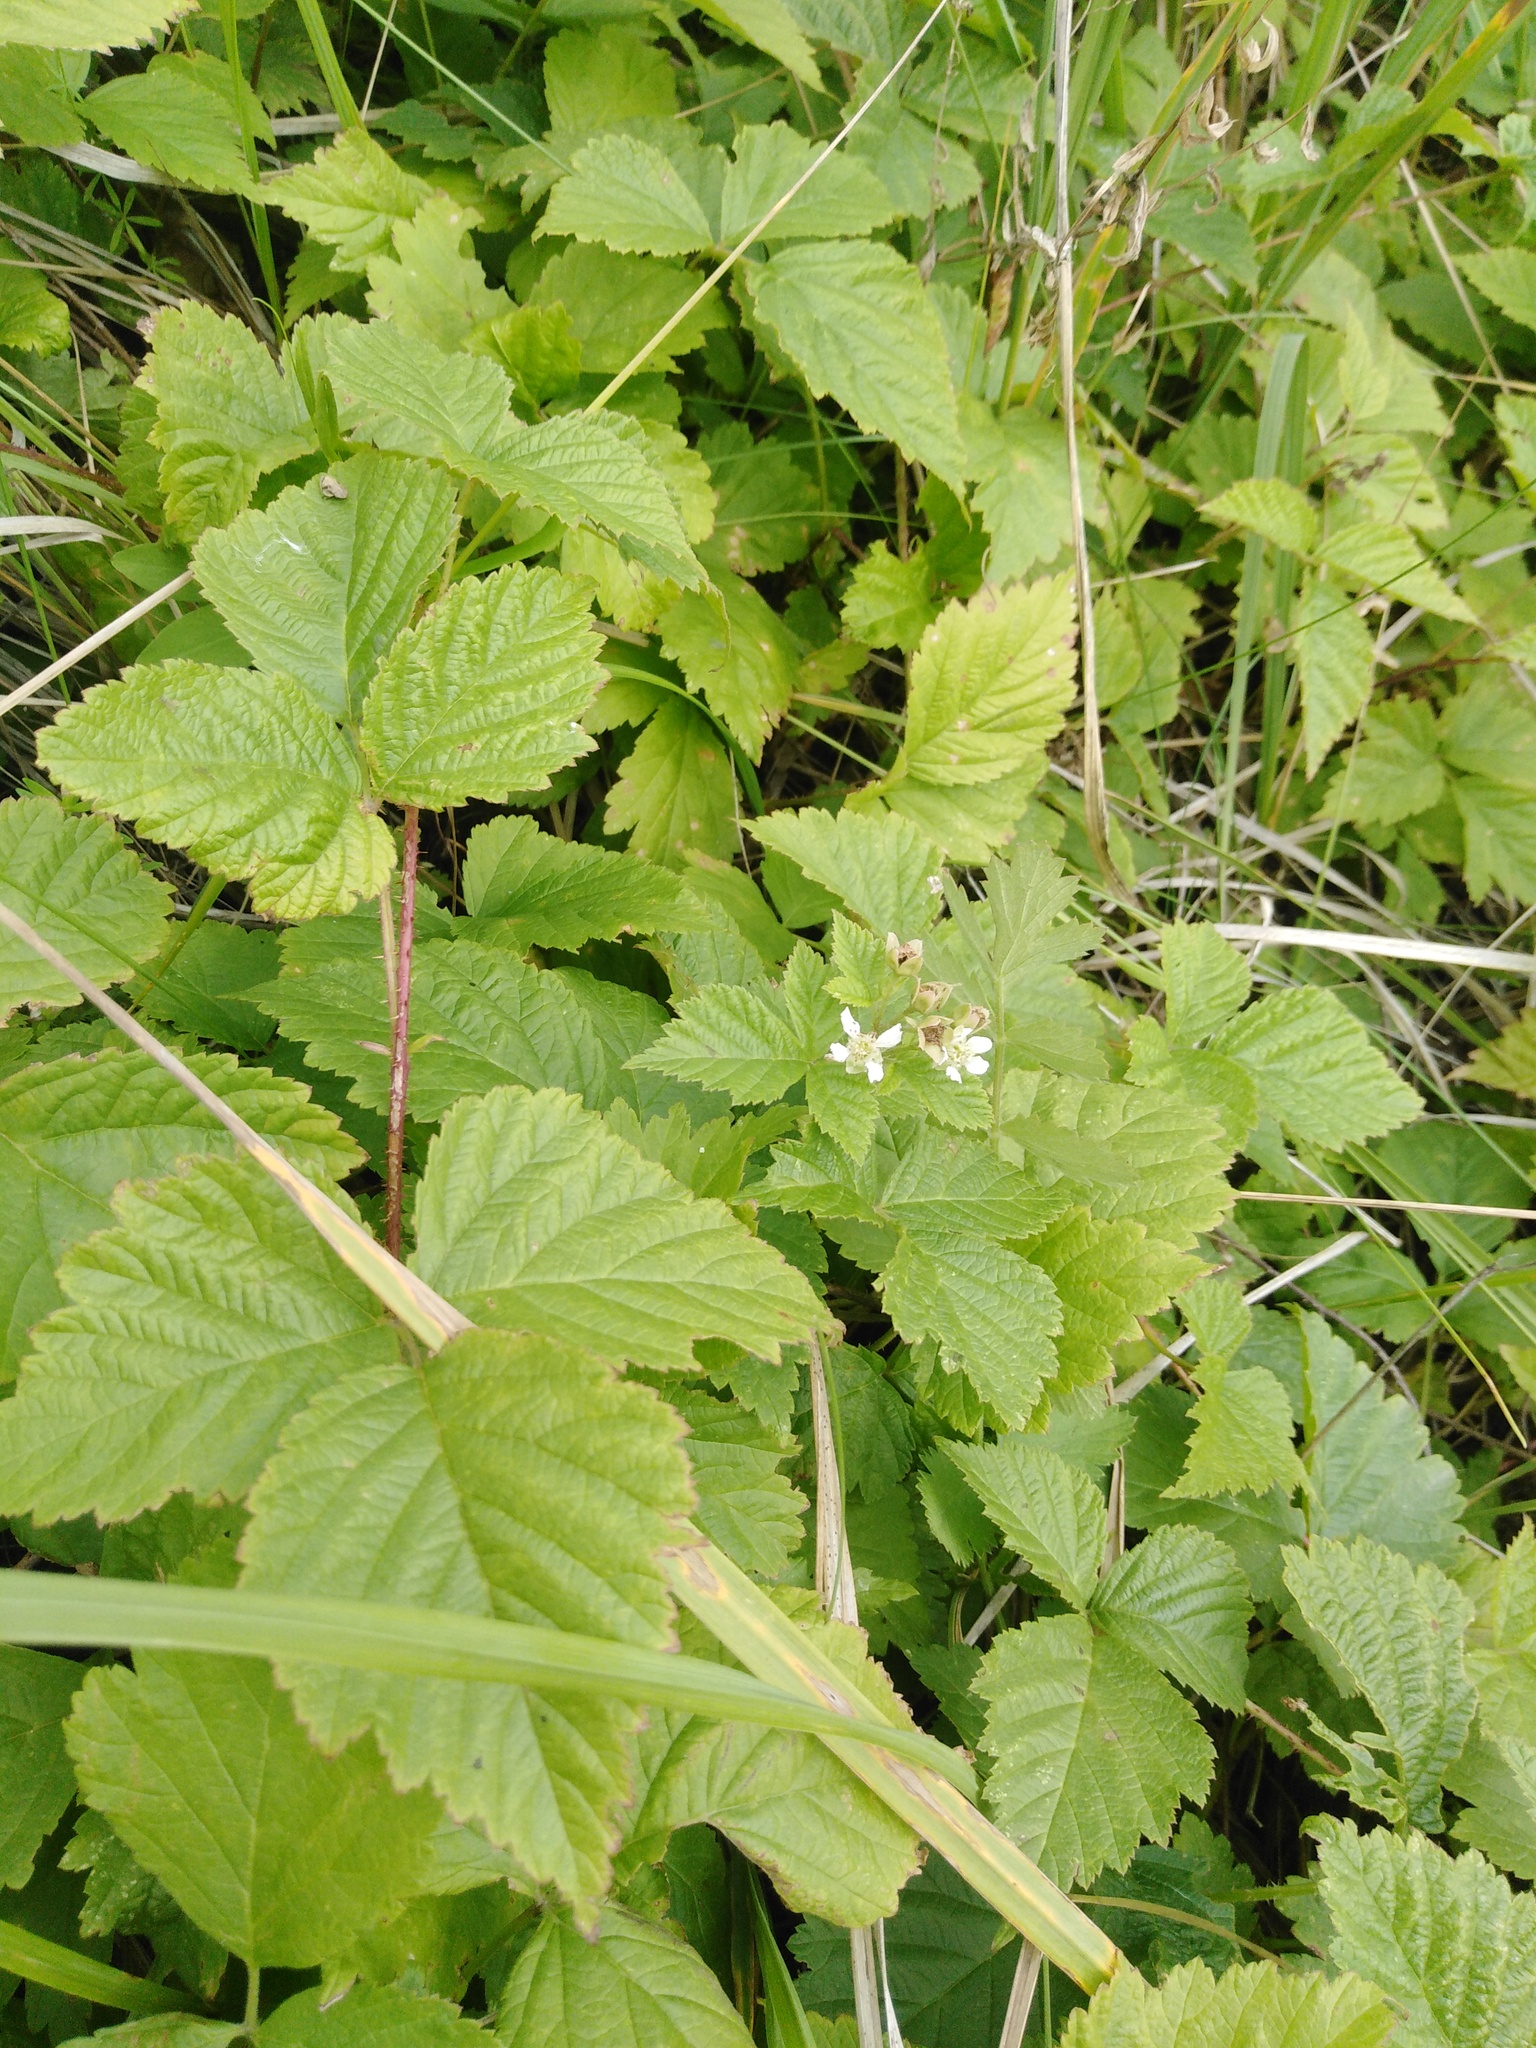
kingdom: Plantae
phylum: Tracheophyta
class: Magnoliopsida
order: Rosales
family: Rosaceae
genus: Rubus
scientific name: Rubus caesius
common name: Dewberry
